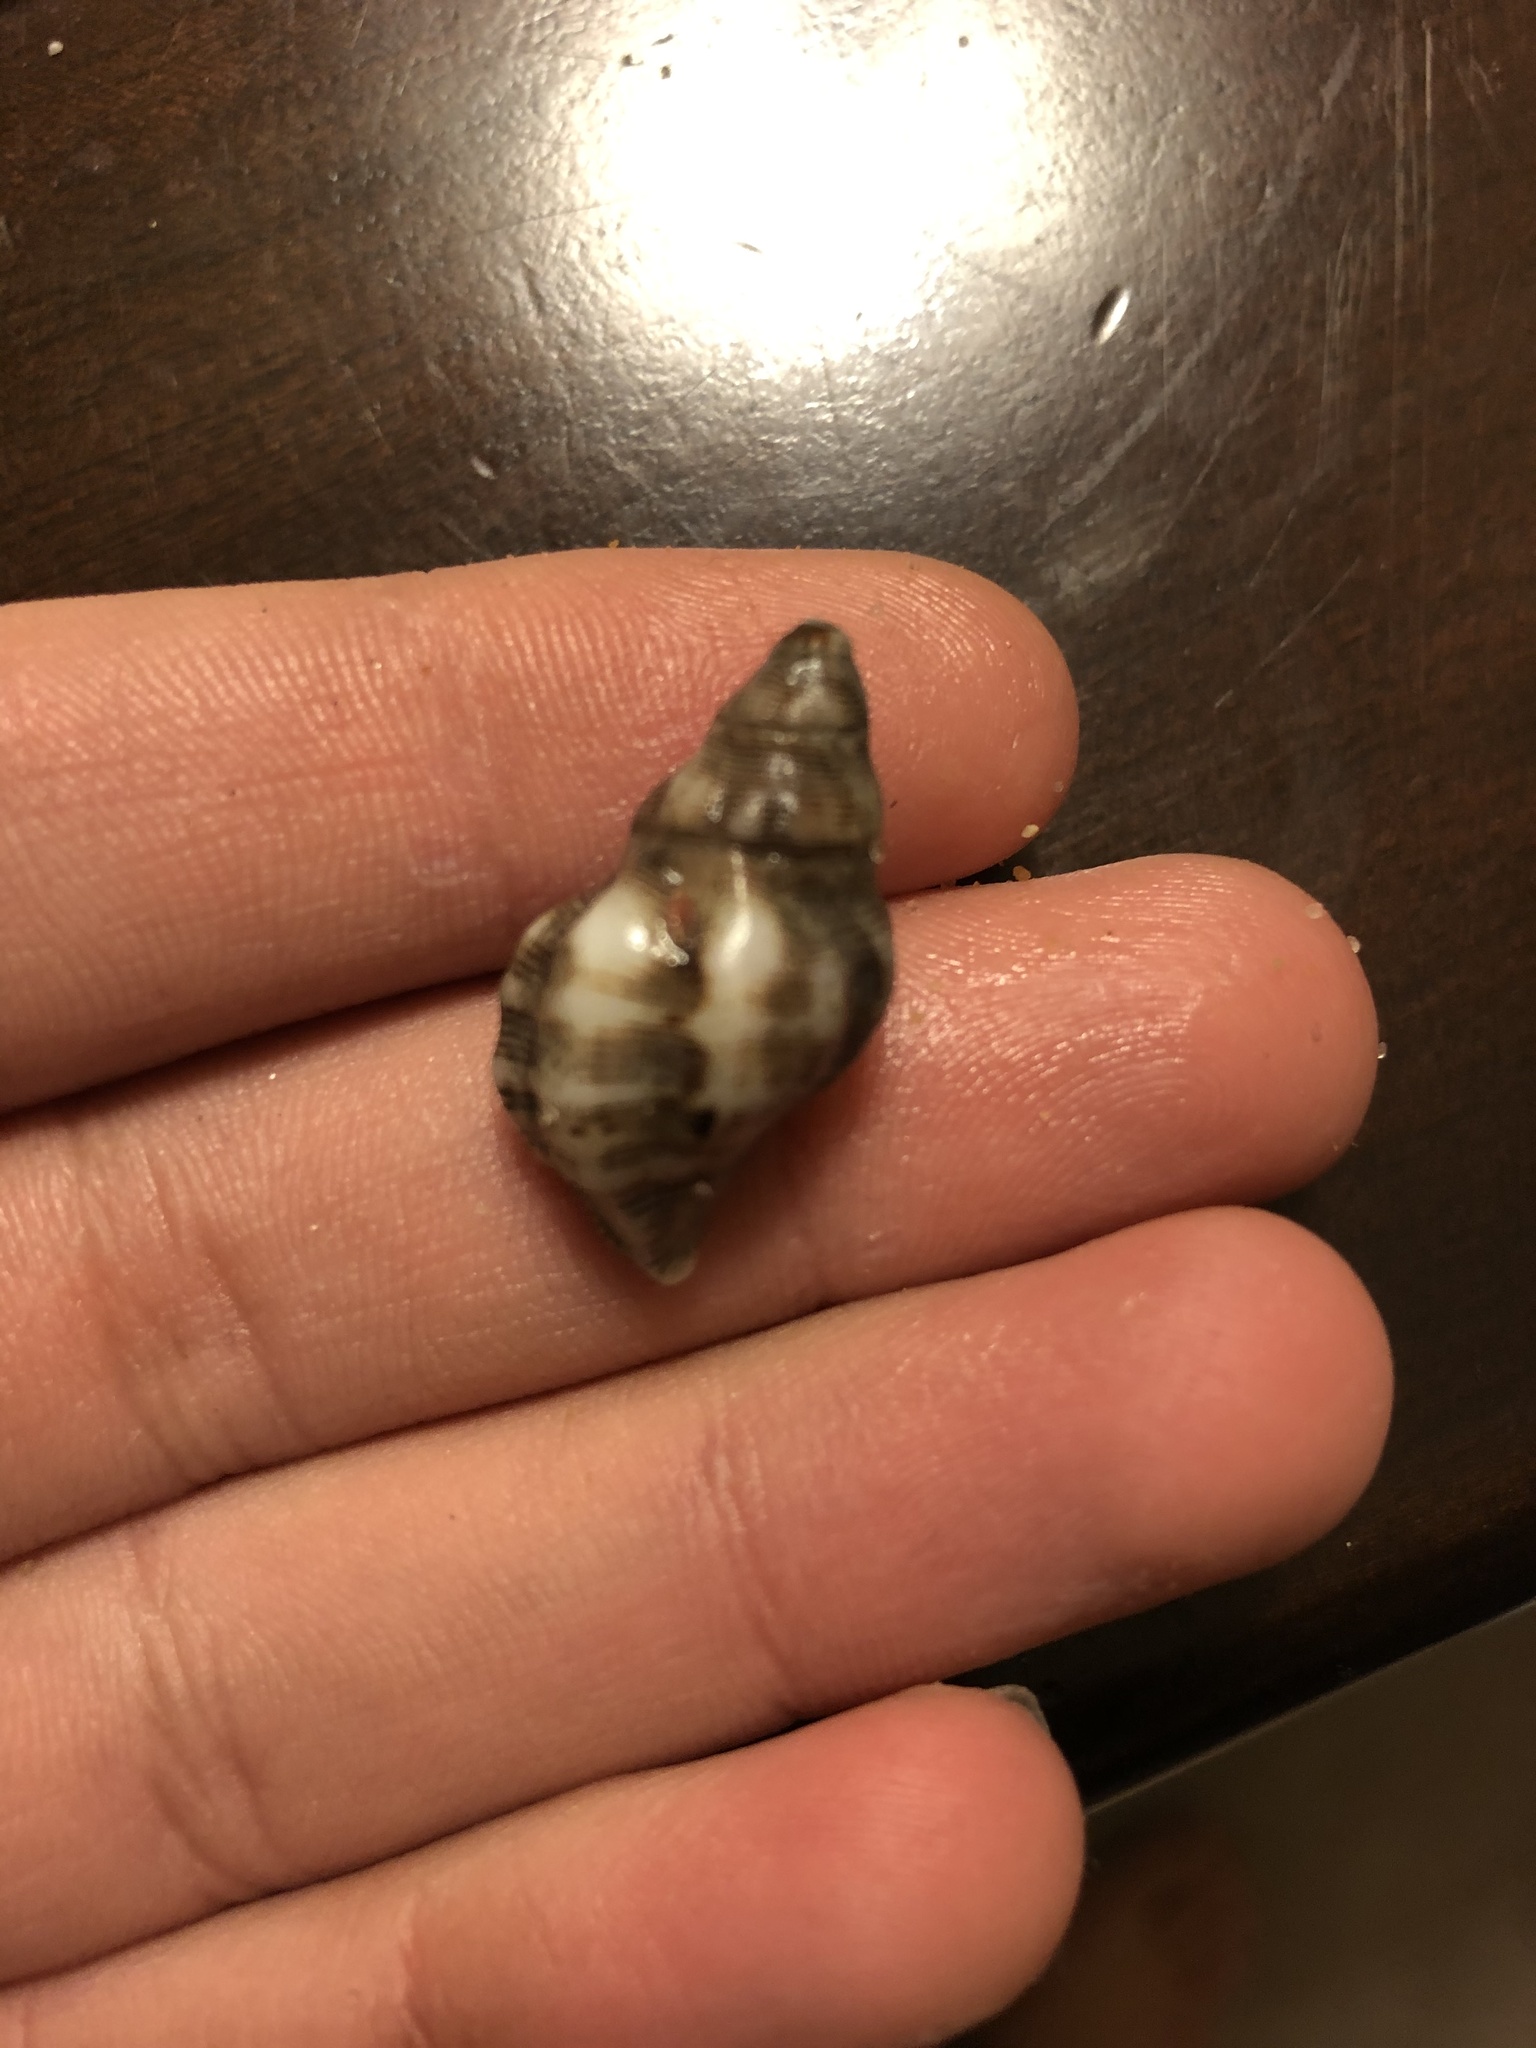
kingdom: Animalia
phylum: Mollusca
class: Gastropoda
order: Neogastropoda
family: Muricidae
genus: Roperia
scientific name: Roperia poulsoni
